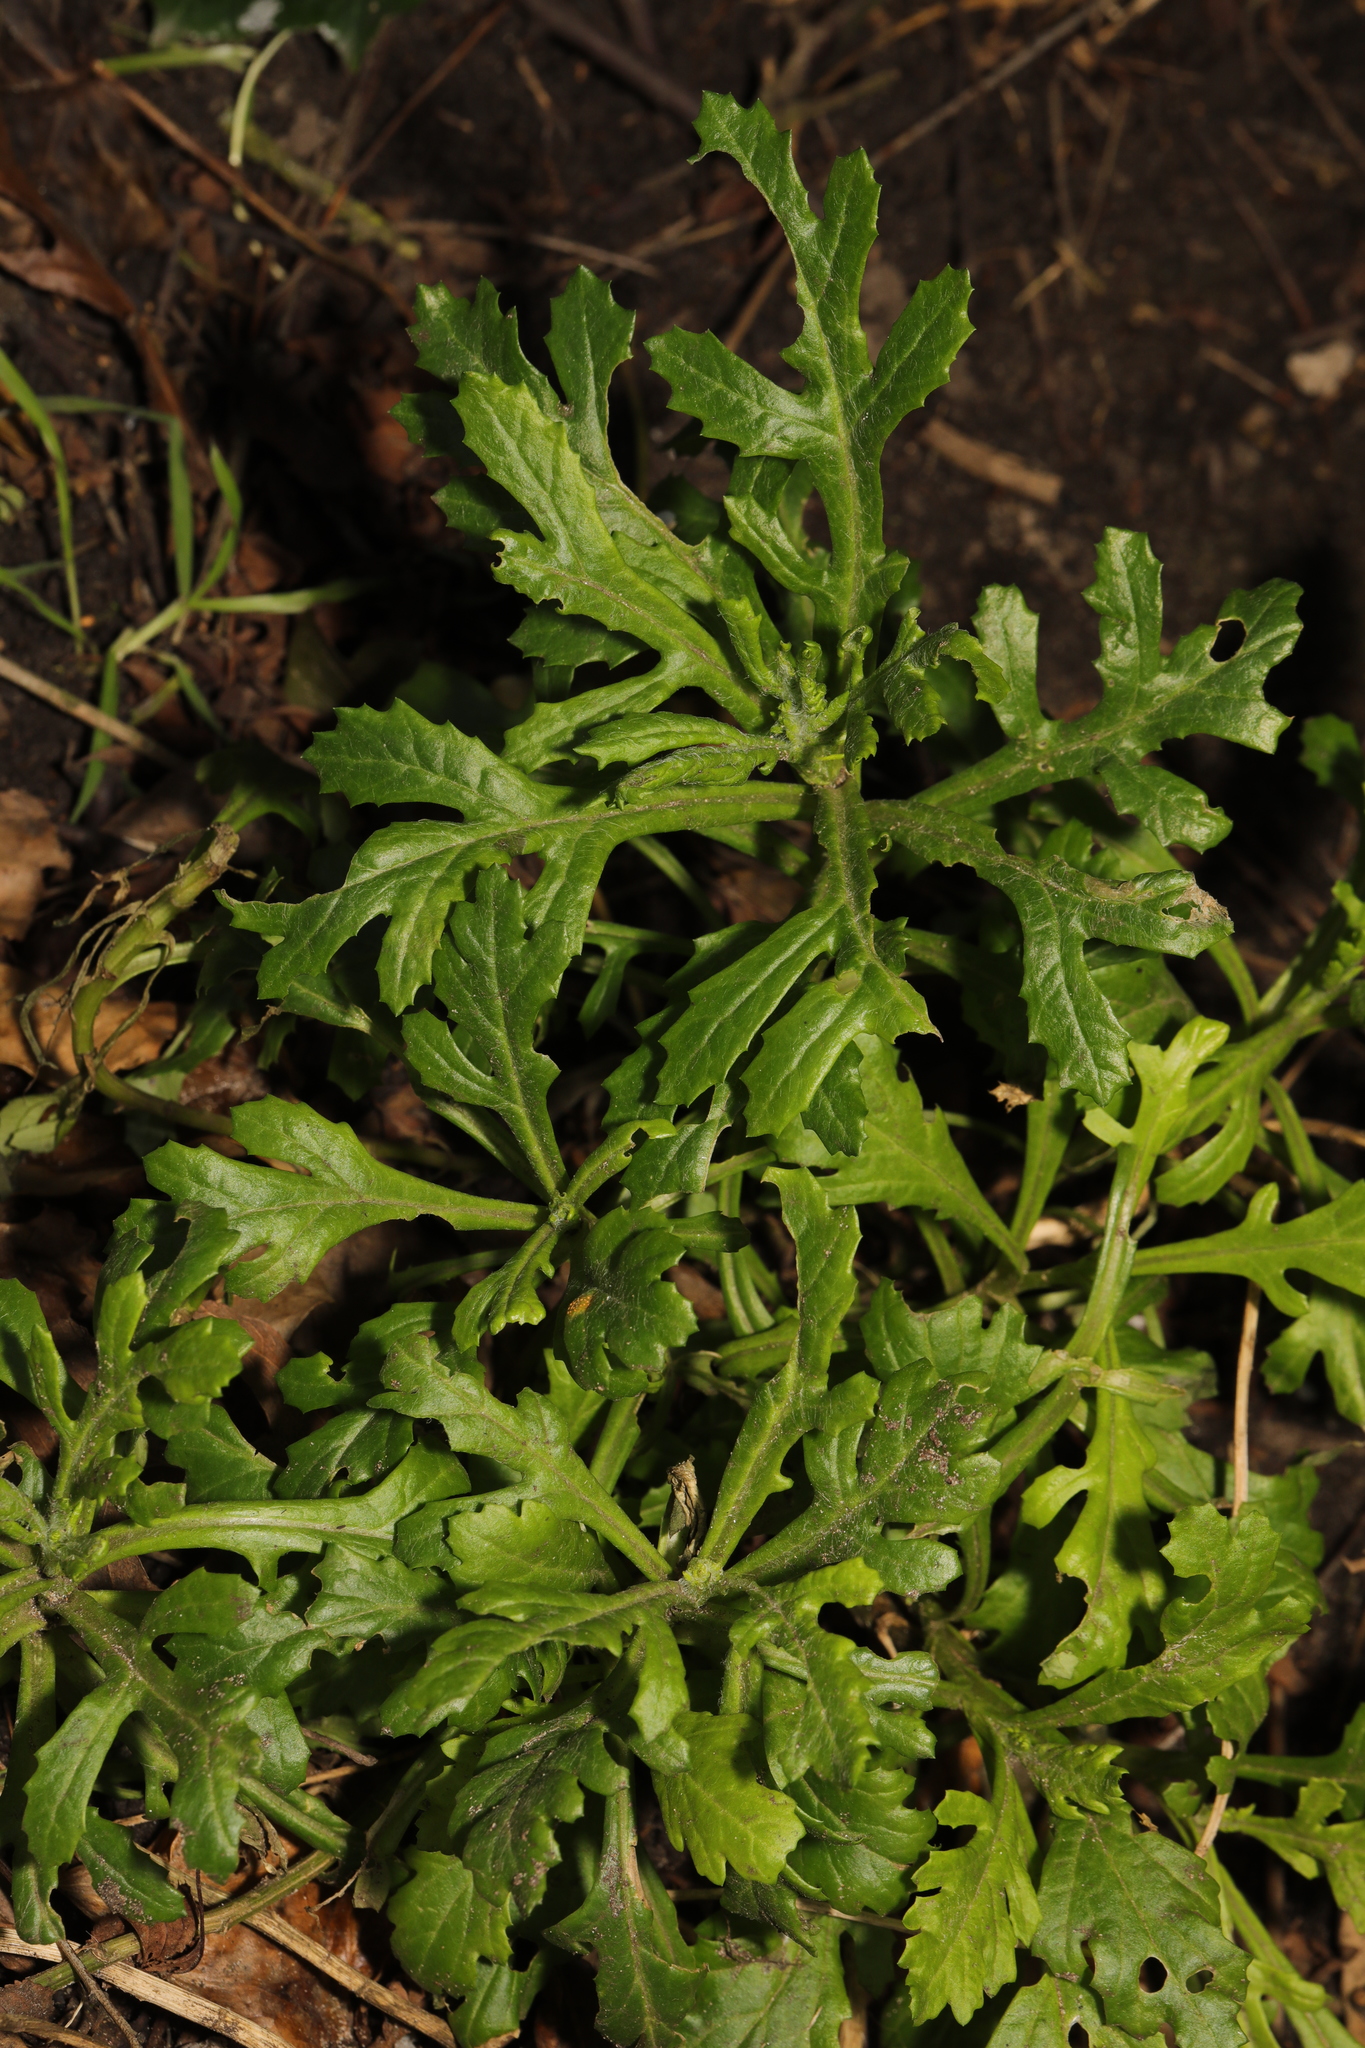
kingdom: Plantae
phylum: Tracheophyta
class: Magnoliopsida
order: Asterales
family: Asteraceae
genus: Senecio
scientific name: Senecio squalidus
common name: Oxford ragwort
